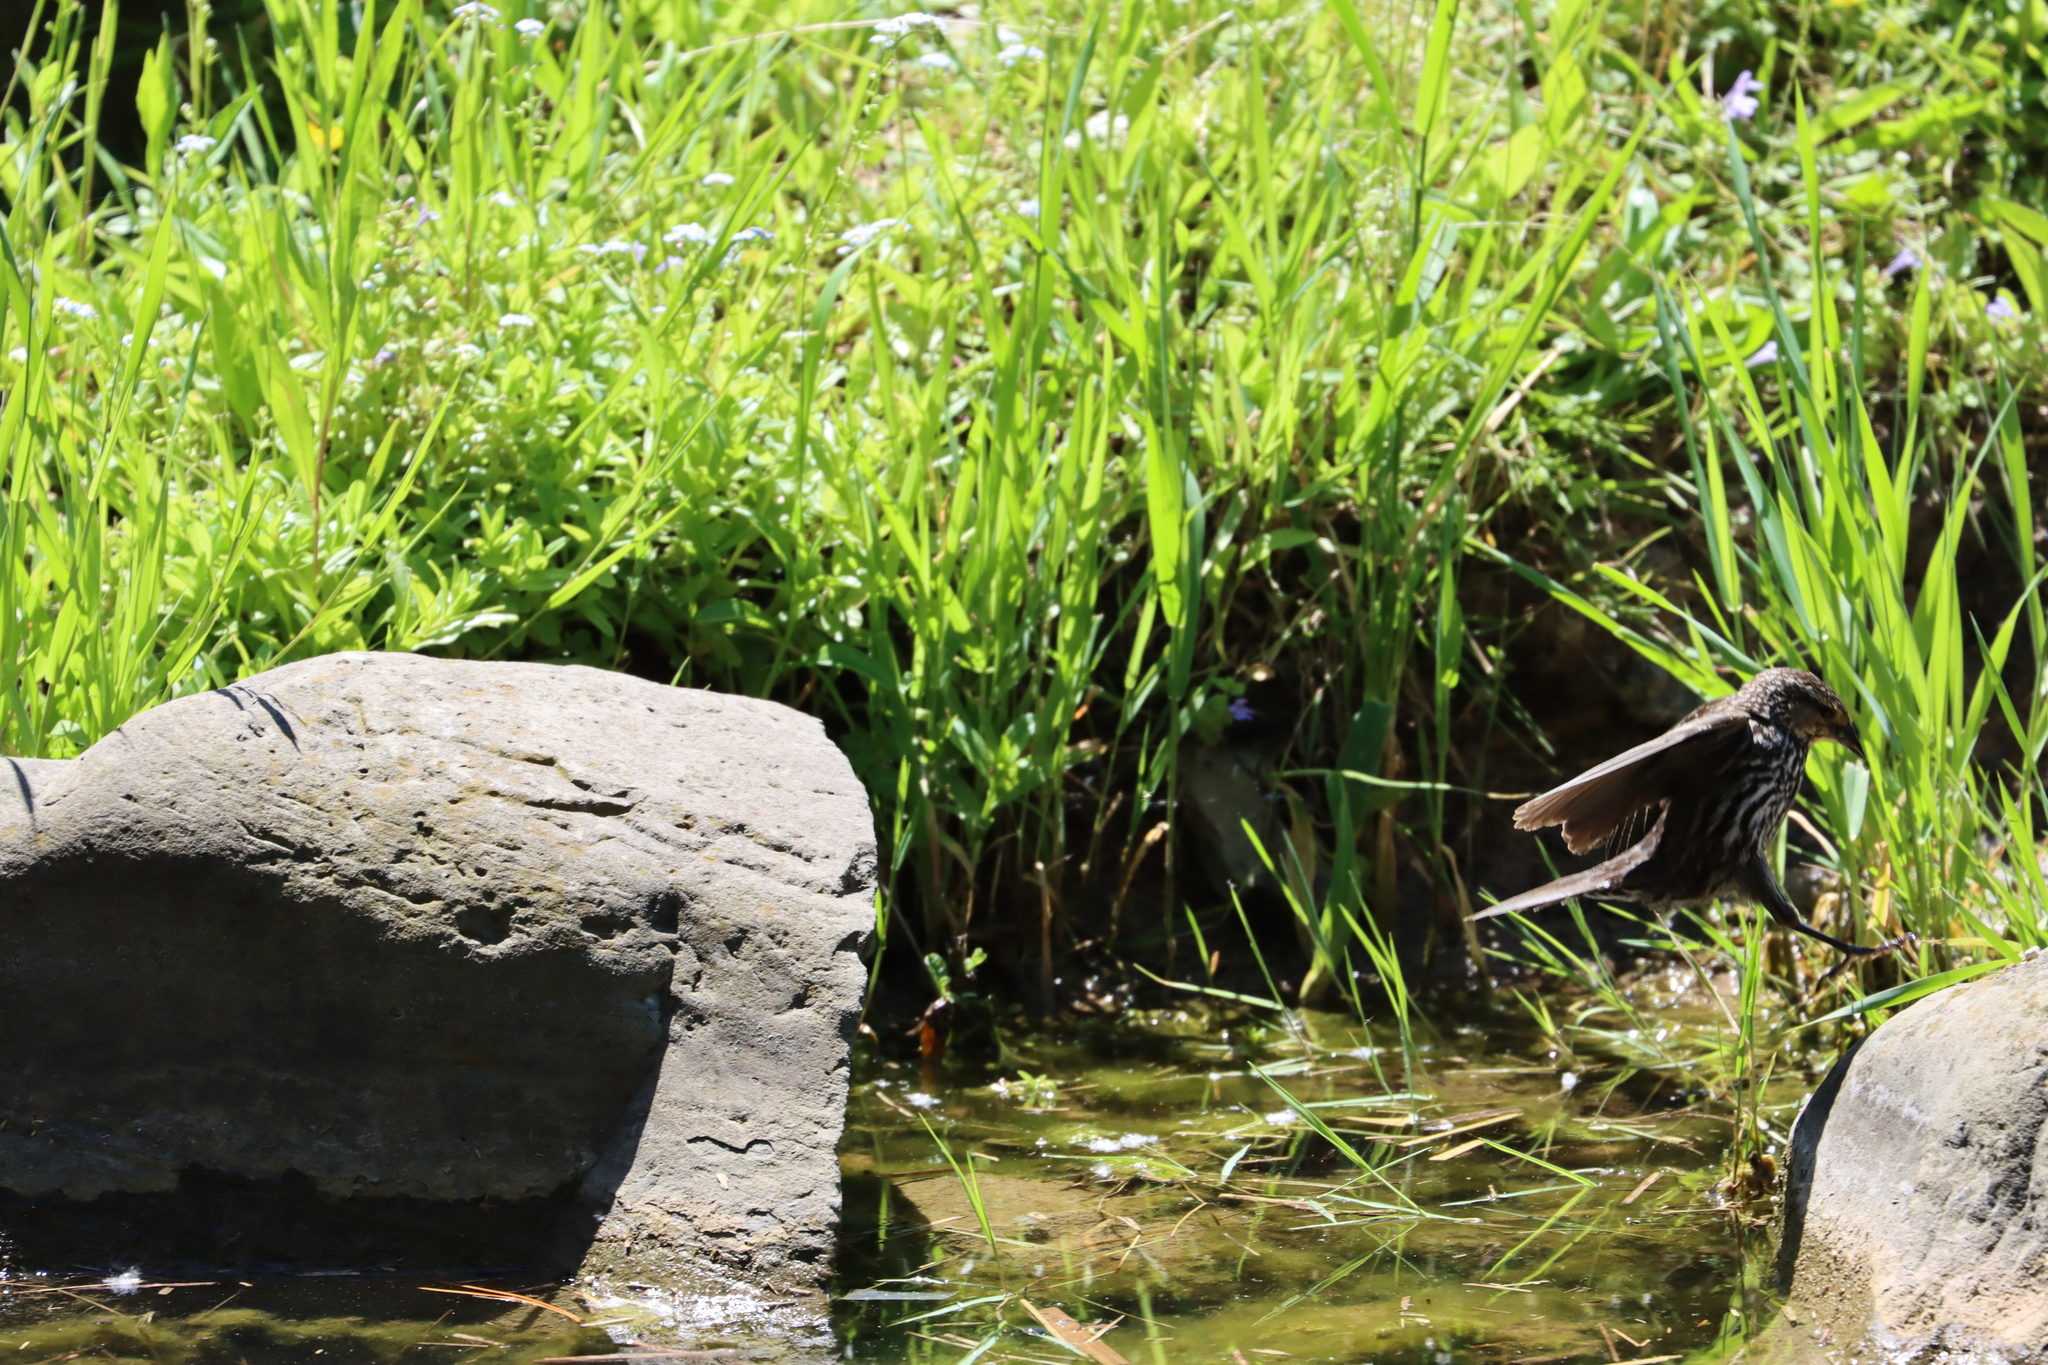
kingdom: Animalia
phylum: Chordata
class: Aves
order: Passeriformes
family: Icteridae
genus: Agelaius
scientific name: Agelaius phoeniceus
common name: Red-winged blackbird
